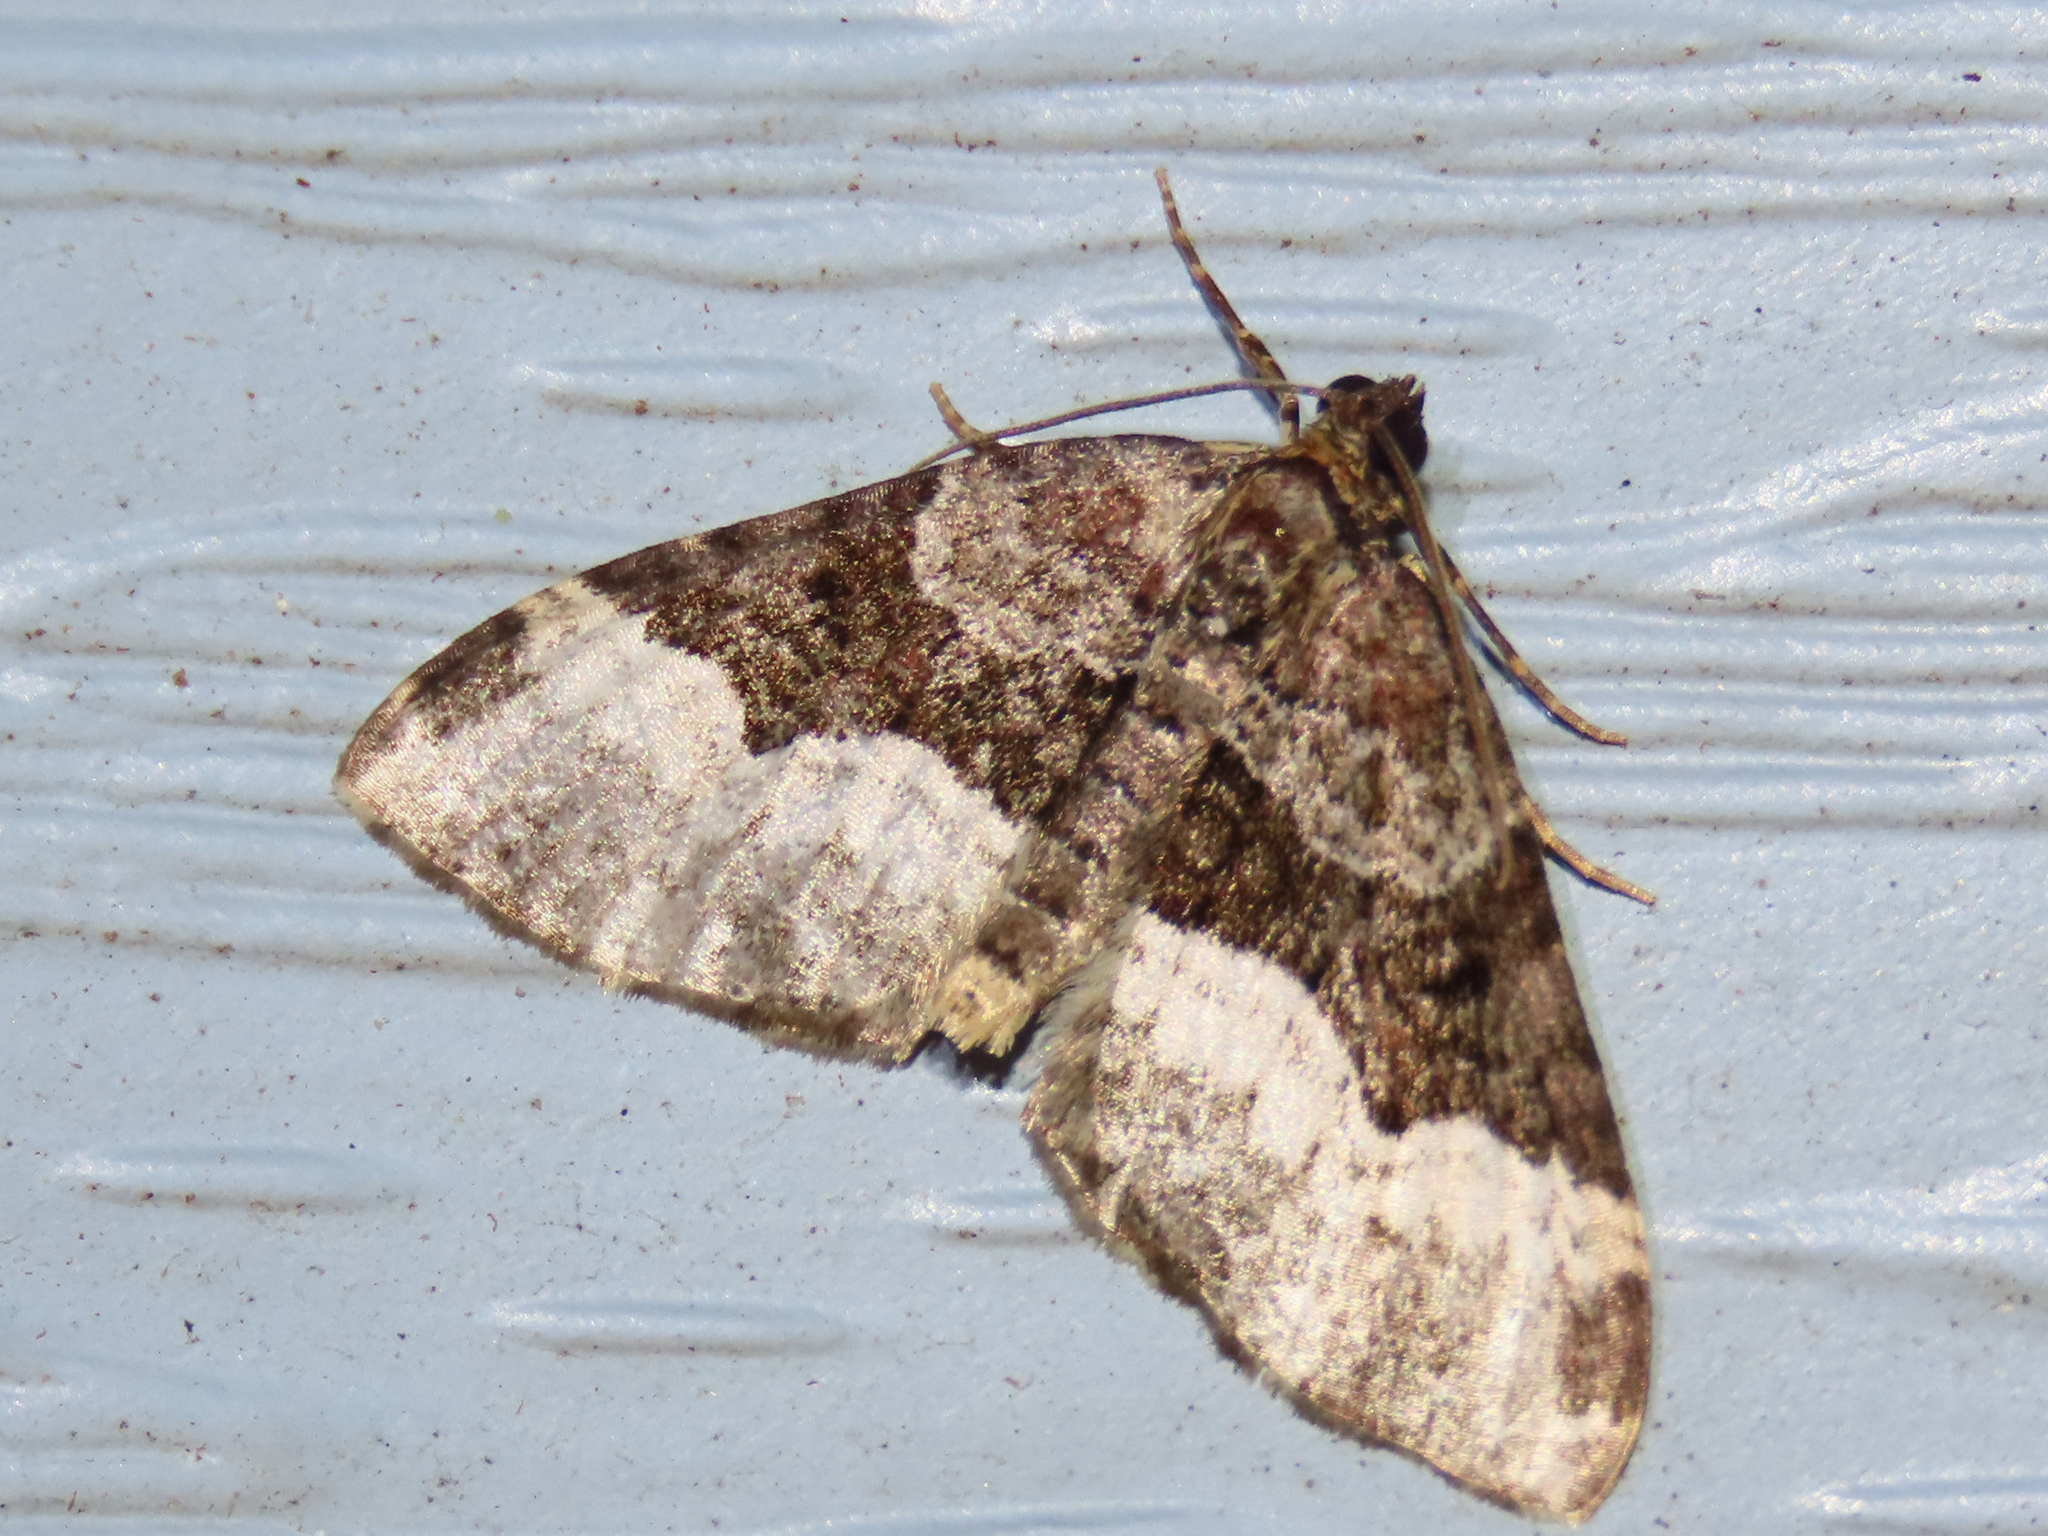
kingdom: Animalia
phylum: Arthropoda
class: Insecta
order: Lepidoptera
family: Geometridae
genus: Euphyia
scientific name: Euphyia intermediata
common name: Sharp-angled carpet
